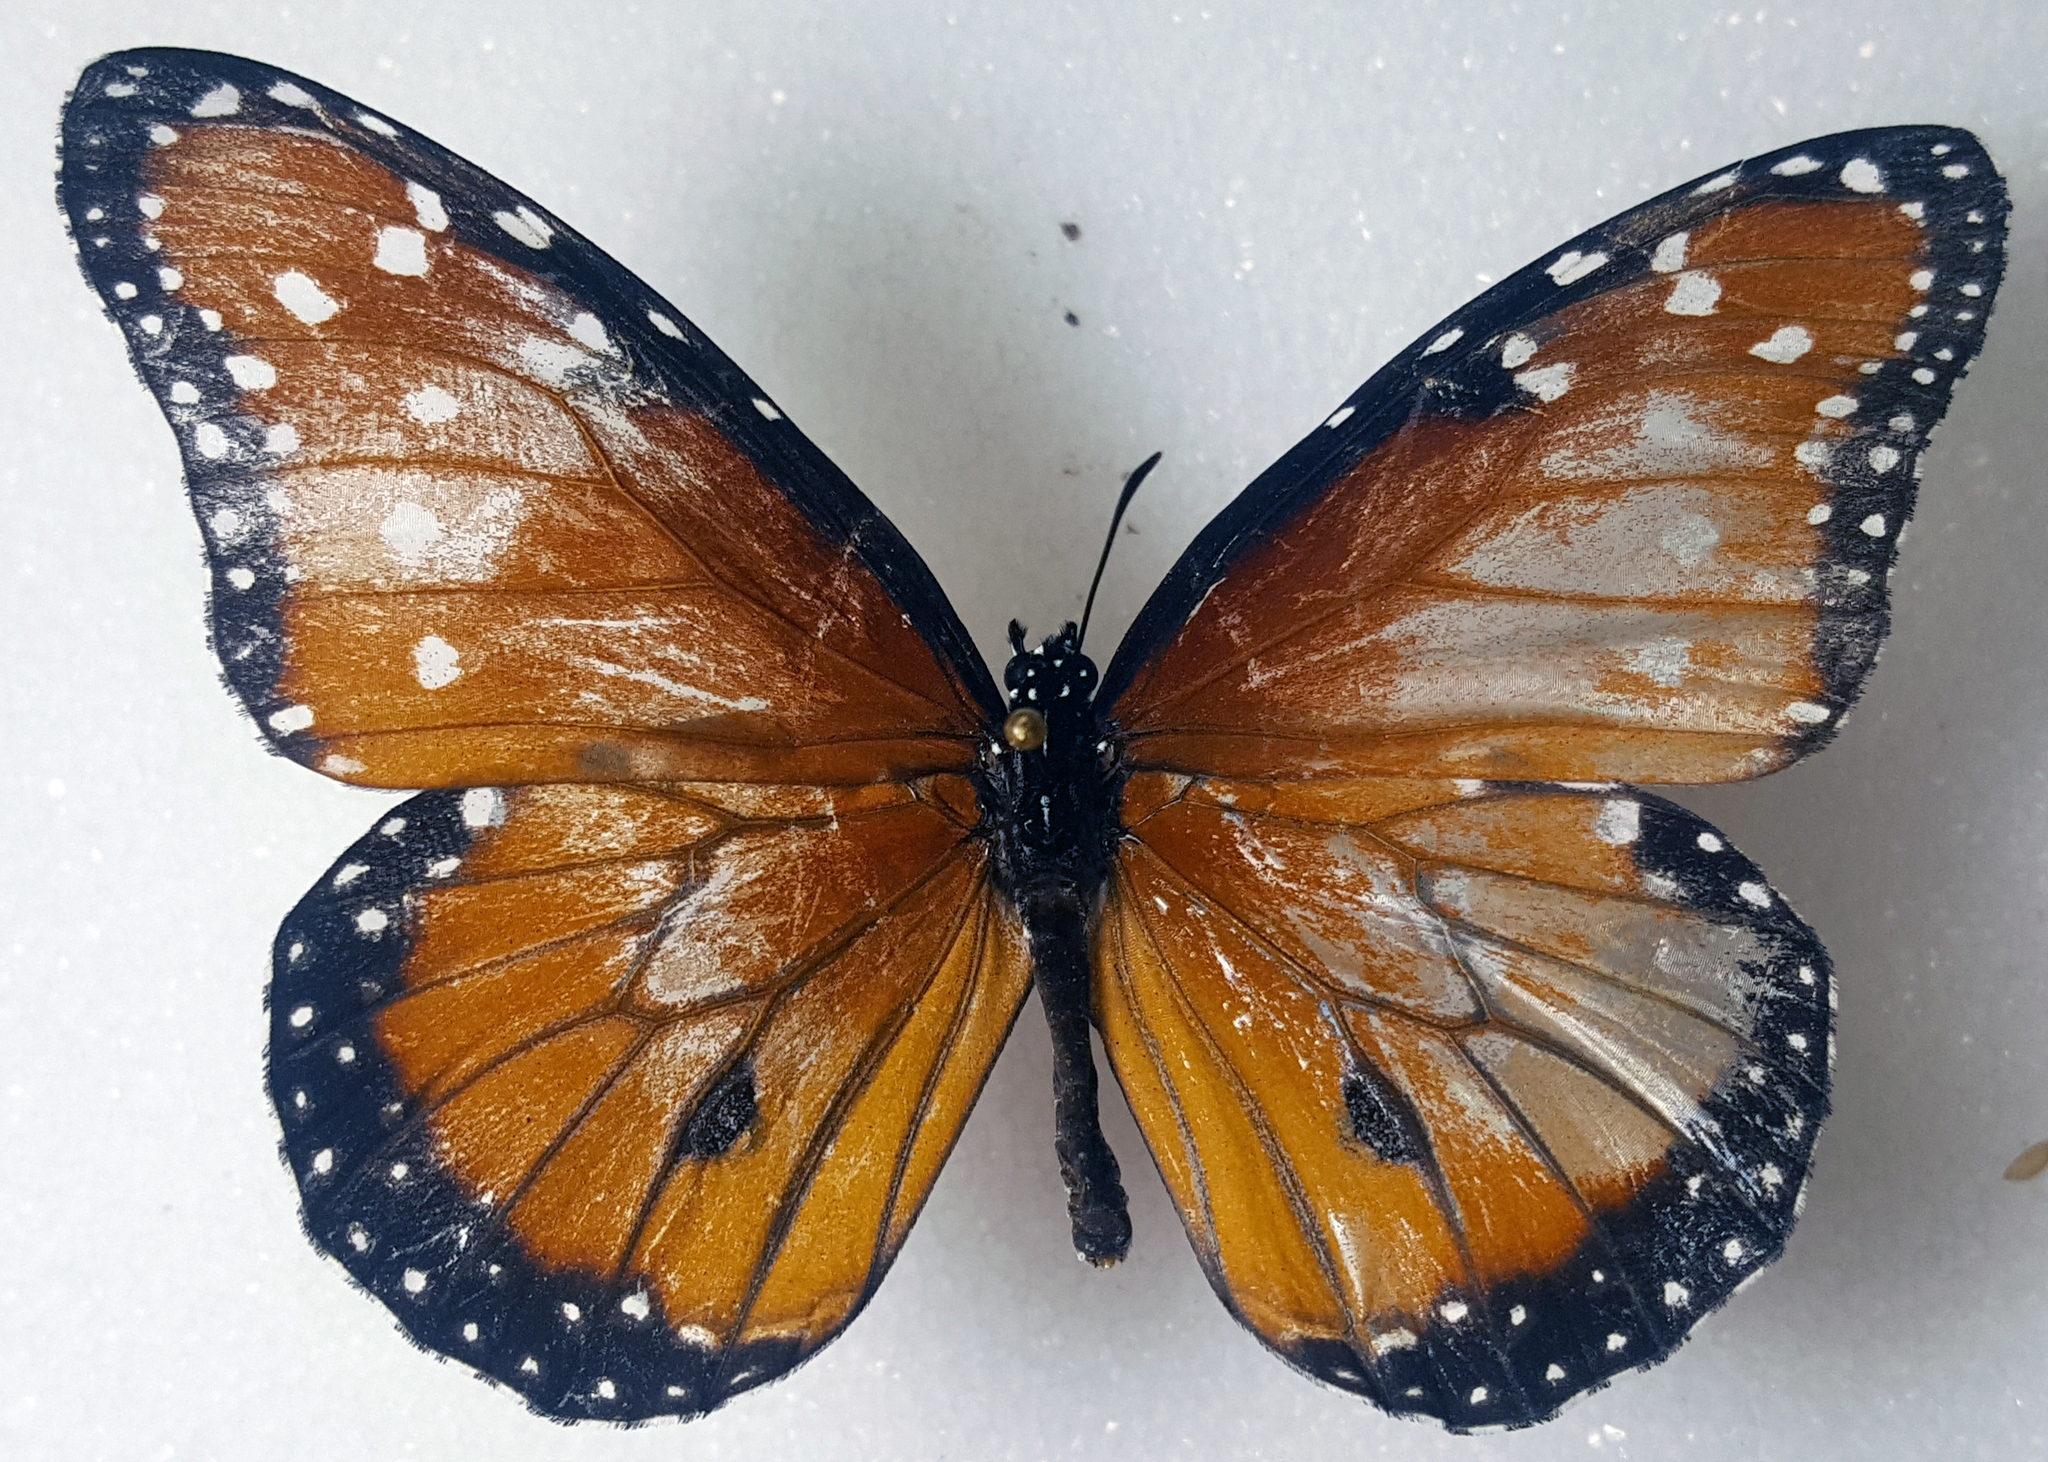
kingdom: Animalia
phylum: Arthropoda
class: Insecta
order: Lepidoptera
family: Nymphalidae
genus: Danaus
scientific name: Danaus gilippus
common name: Queen
